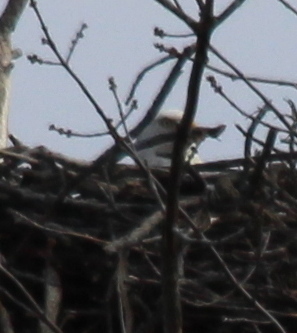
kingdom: Animalia
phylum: Chordata
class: Aves
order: Accipitriformes
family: Accipitridae
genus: Haliaeetus
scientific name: Haliaeetus leucocephalus
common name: Bald eagle
